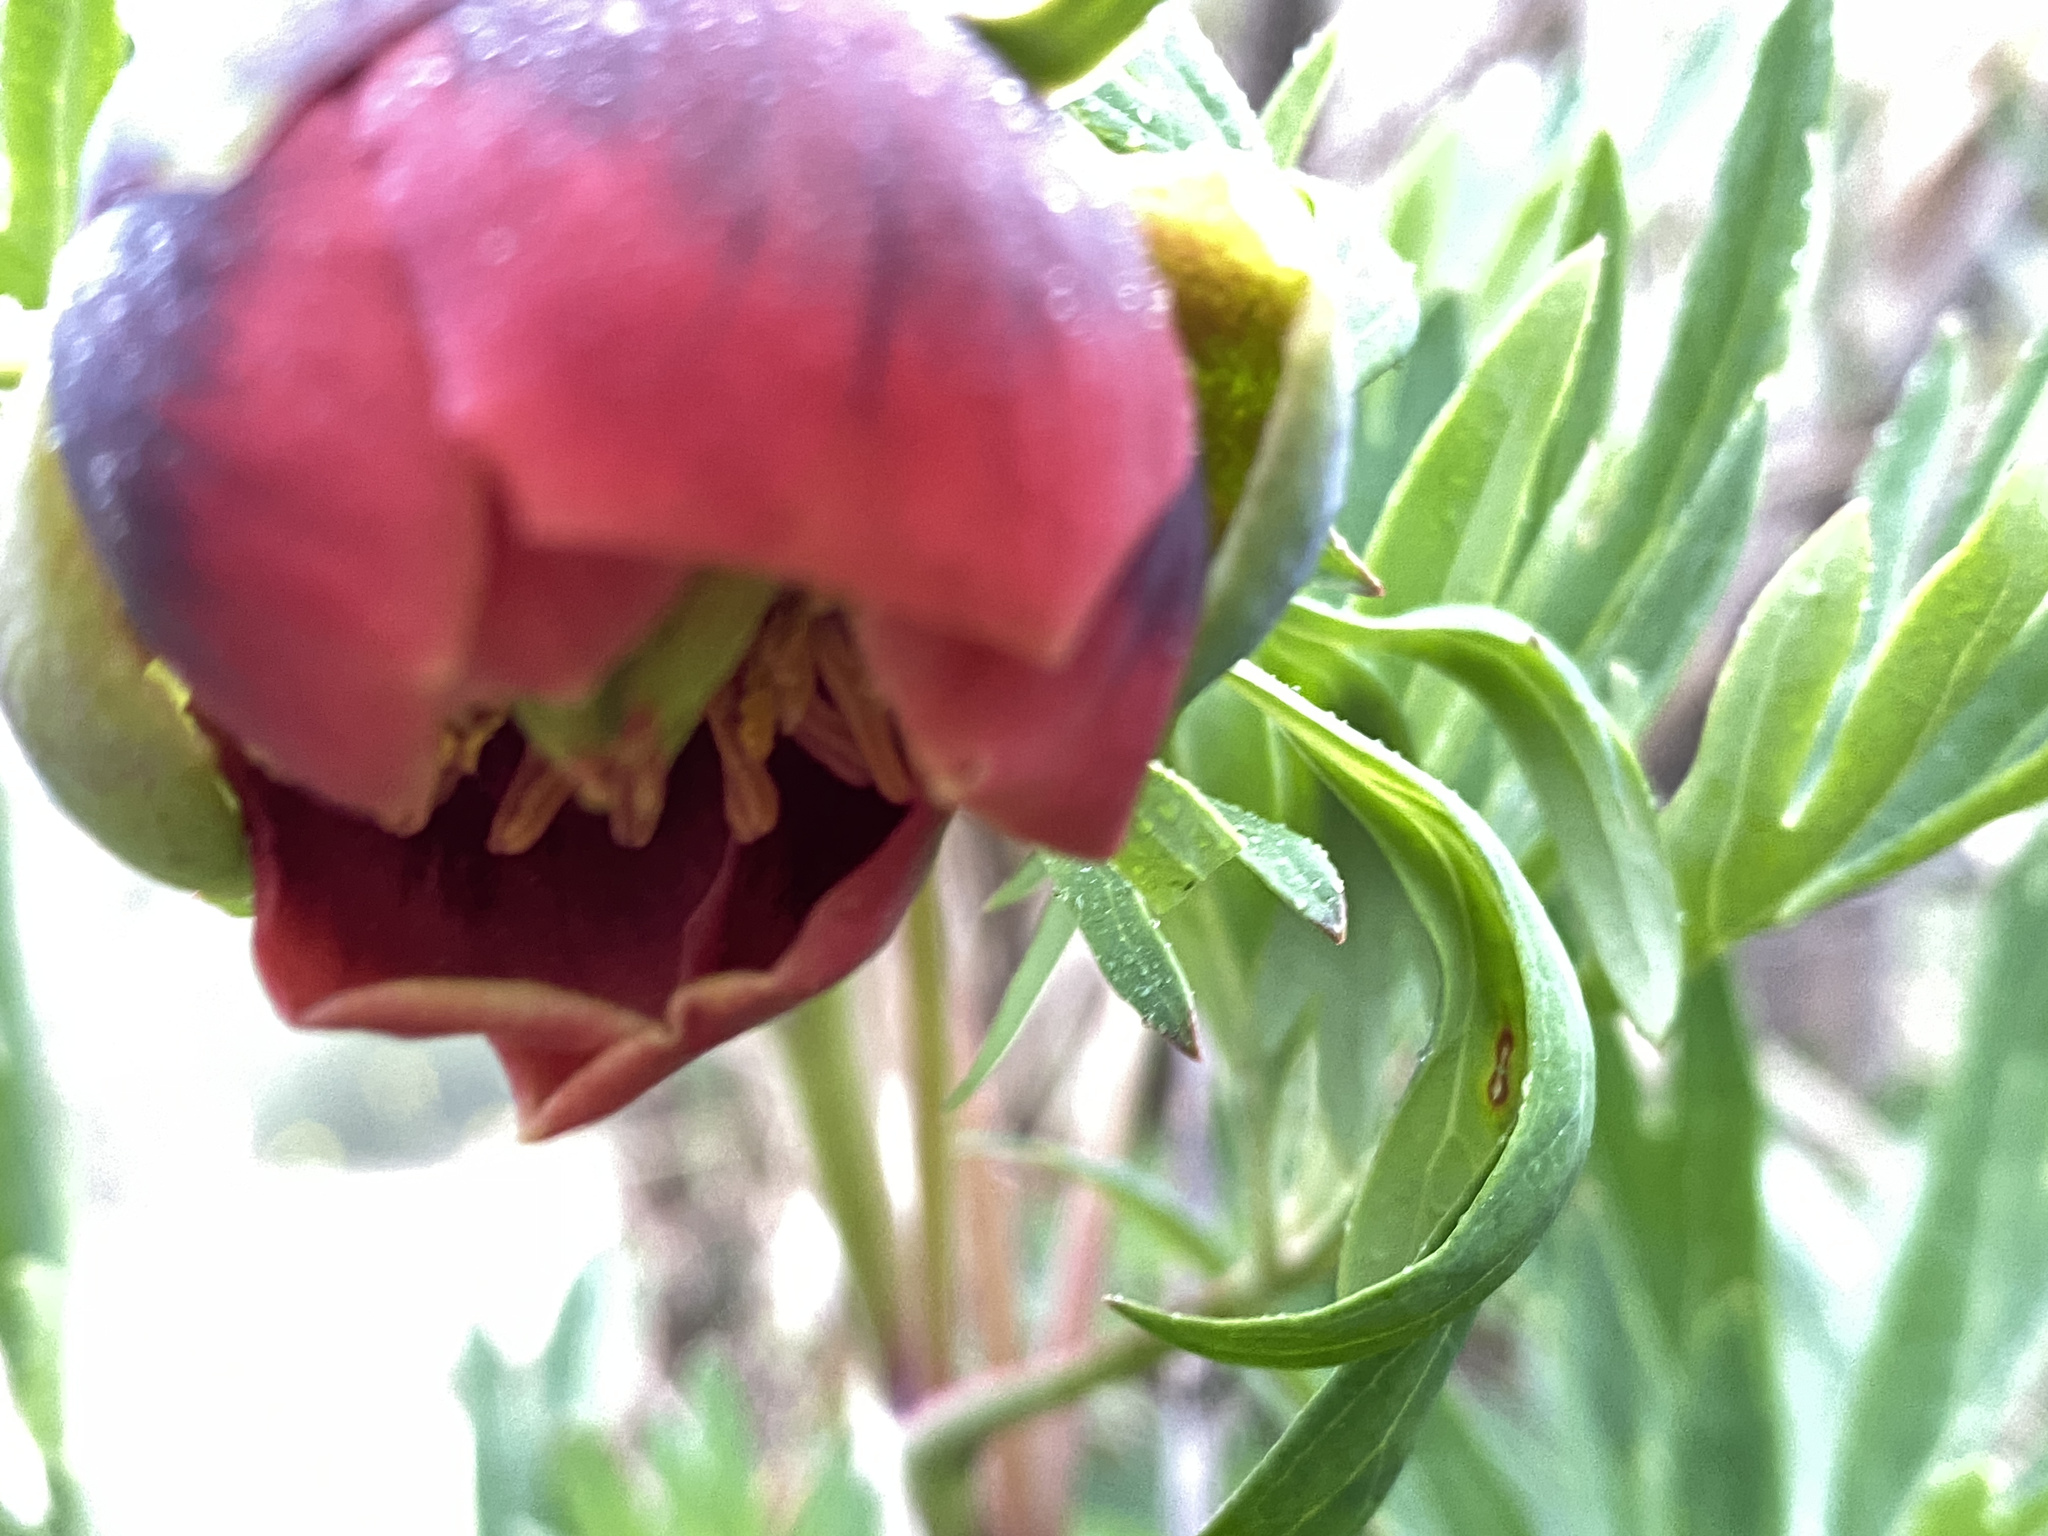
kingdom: Plantae
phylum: Tracheophyta
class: Magnoliopsida
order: Saxifragales
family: Paeoniaceae
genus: Paeonia
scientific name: Paeonia californica
